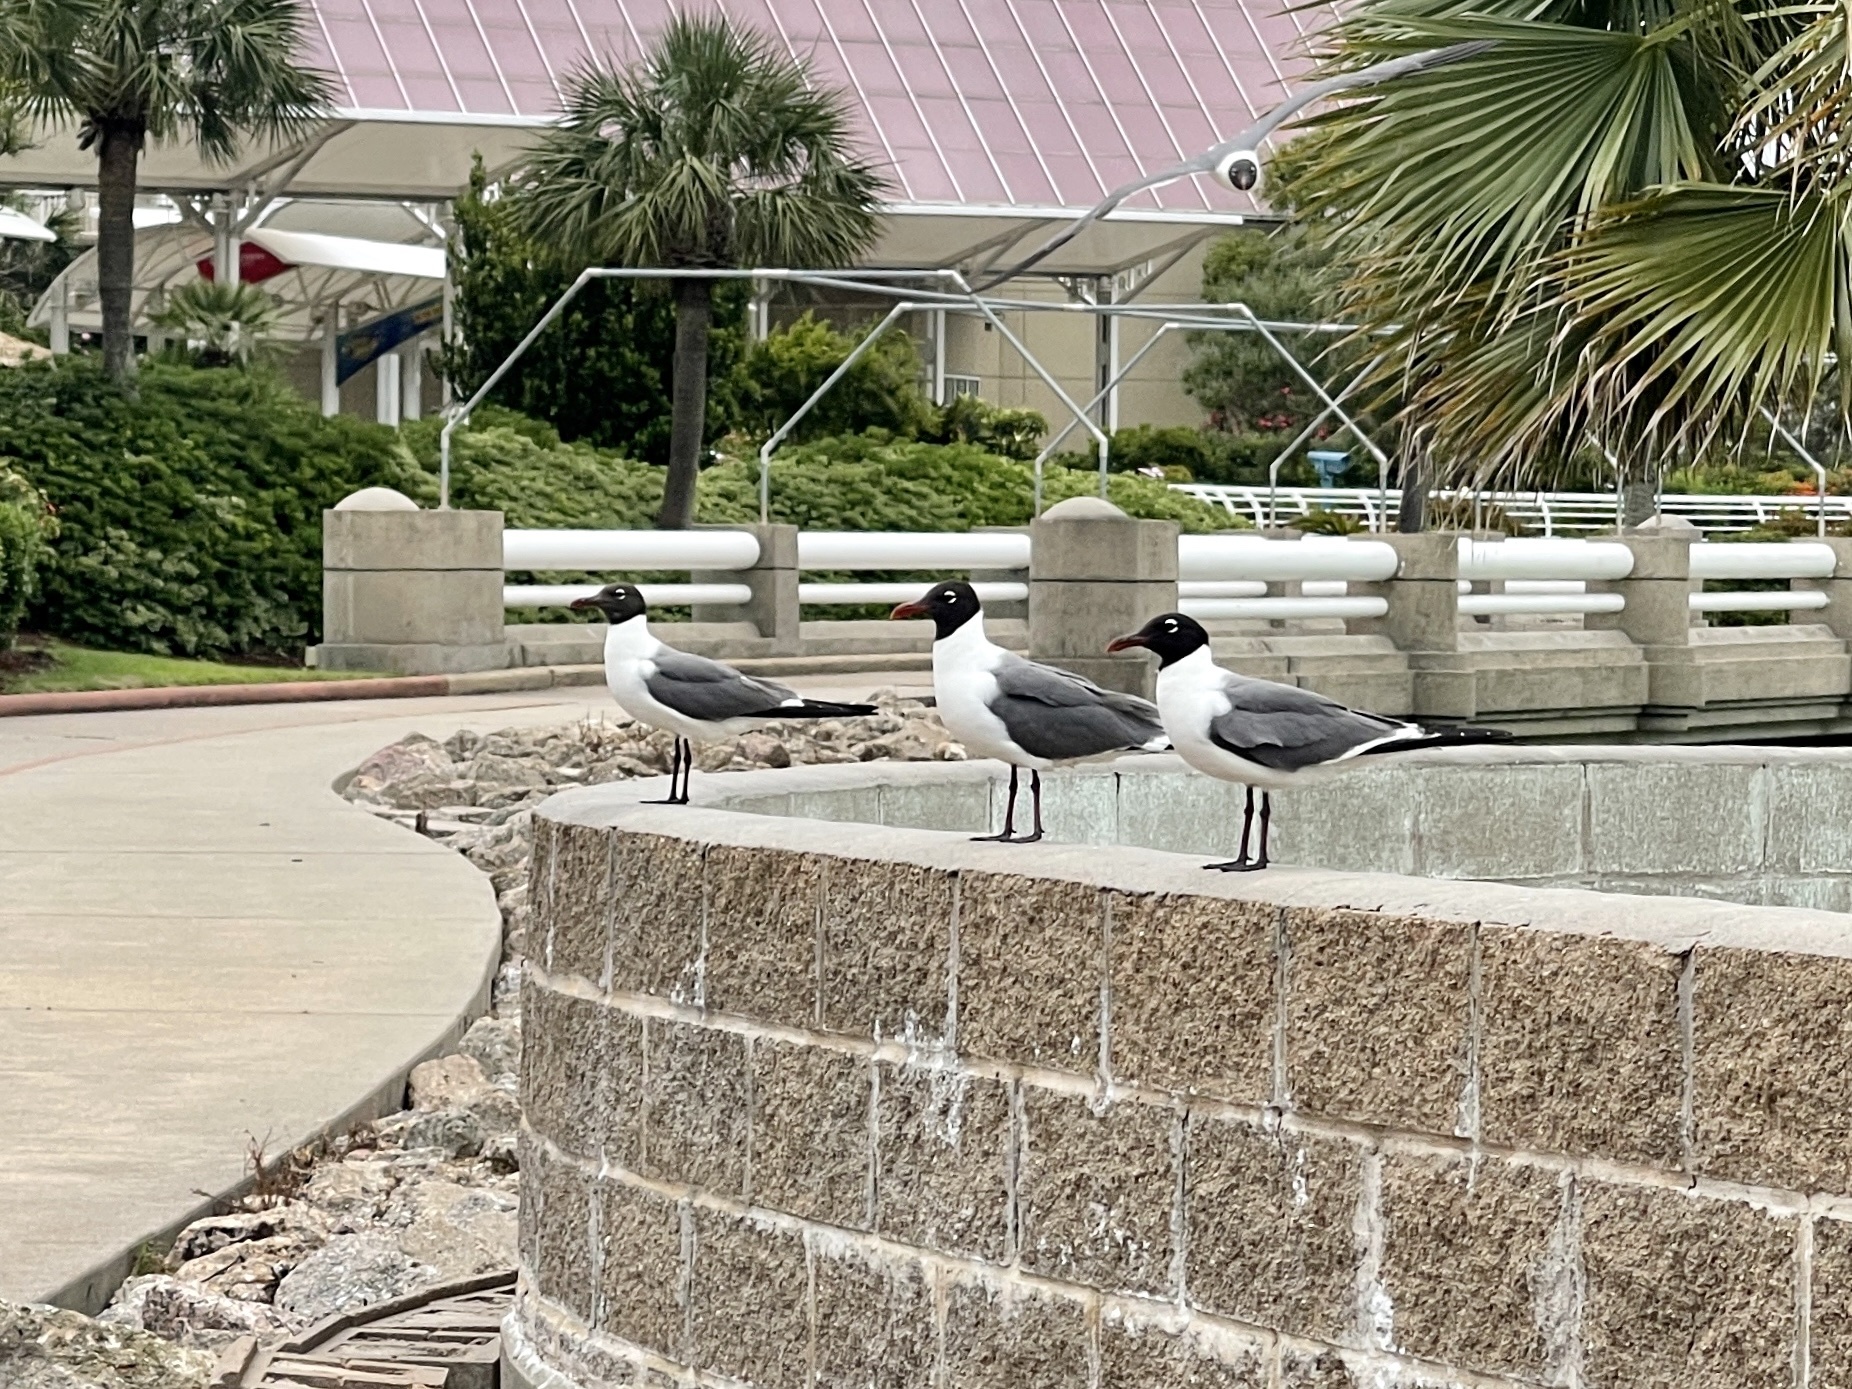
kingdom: Animalia
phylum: Chordata
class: Aves
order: Charadriiformes
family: Laridae
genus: Leucophaeus
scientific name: Leucophaeus atricilla
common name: Laughing gull
